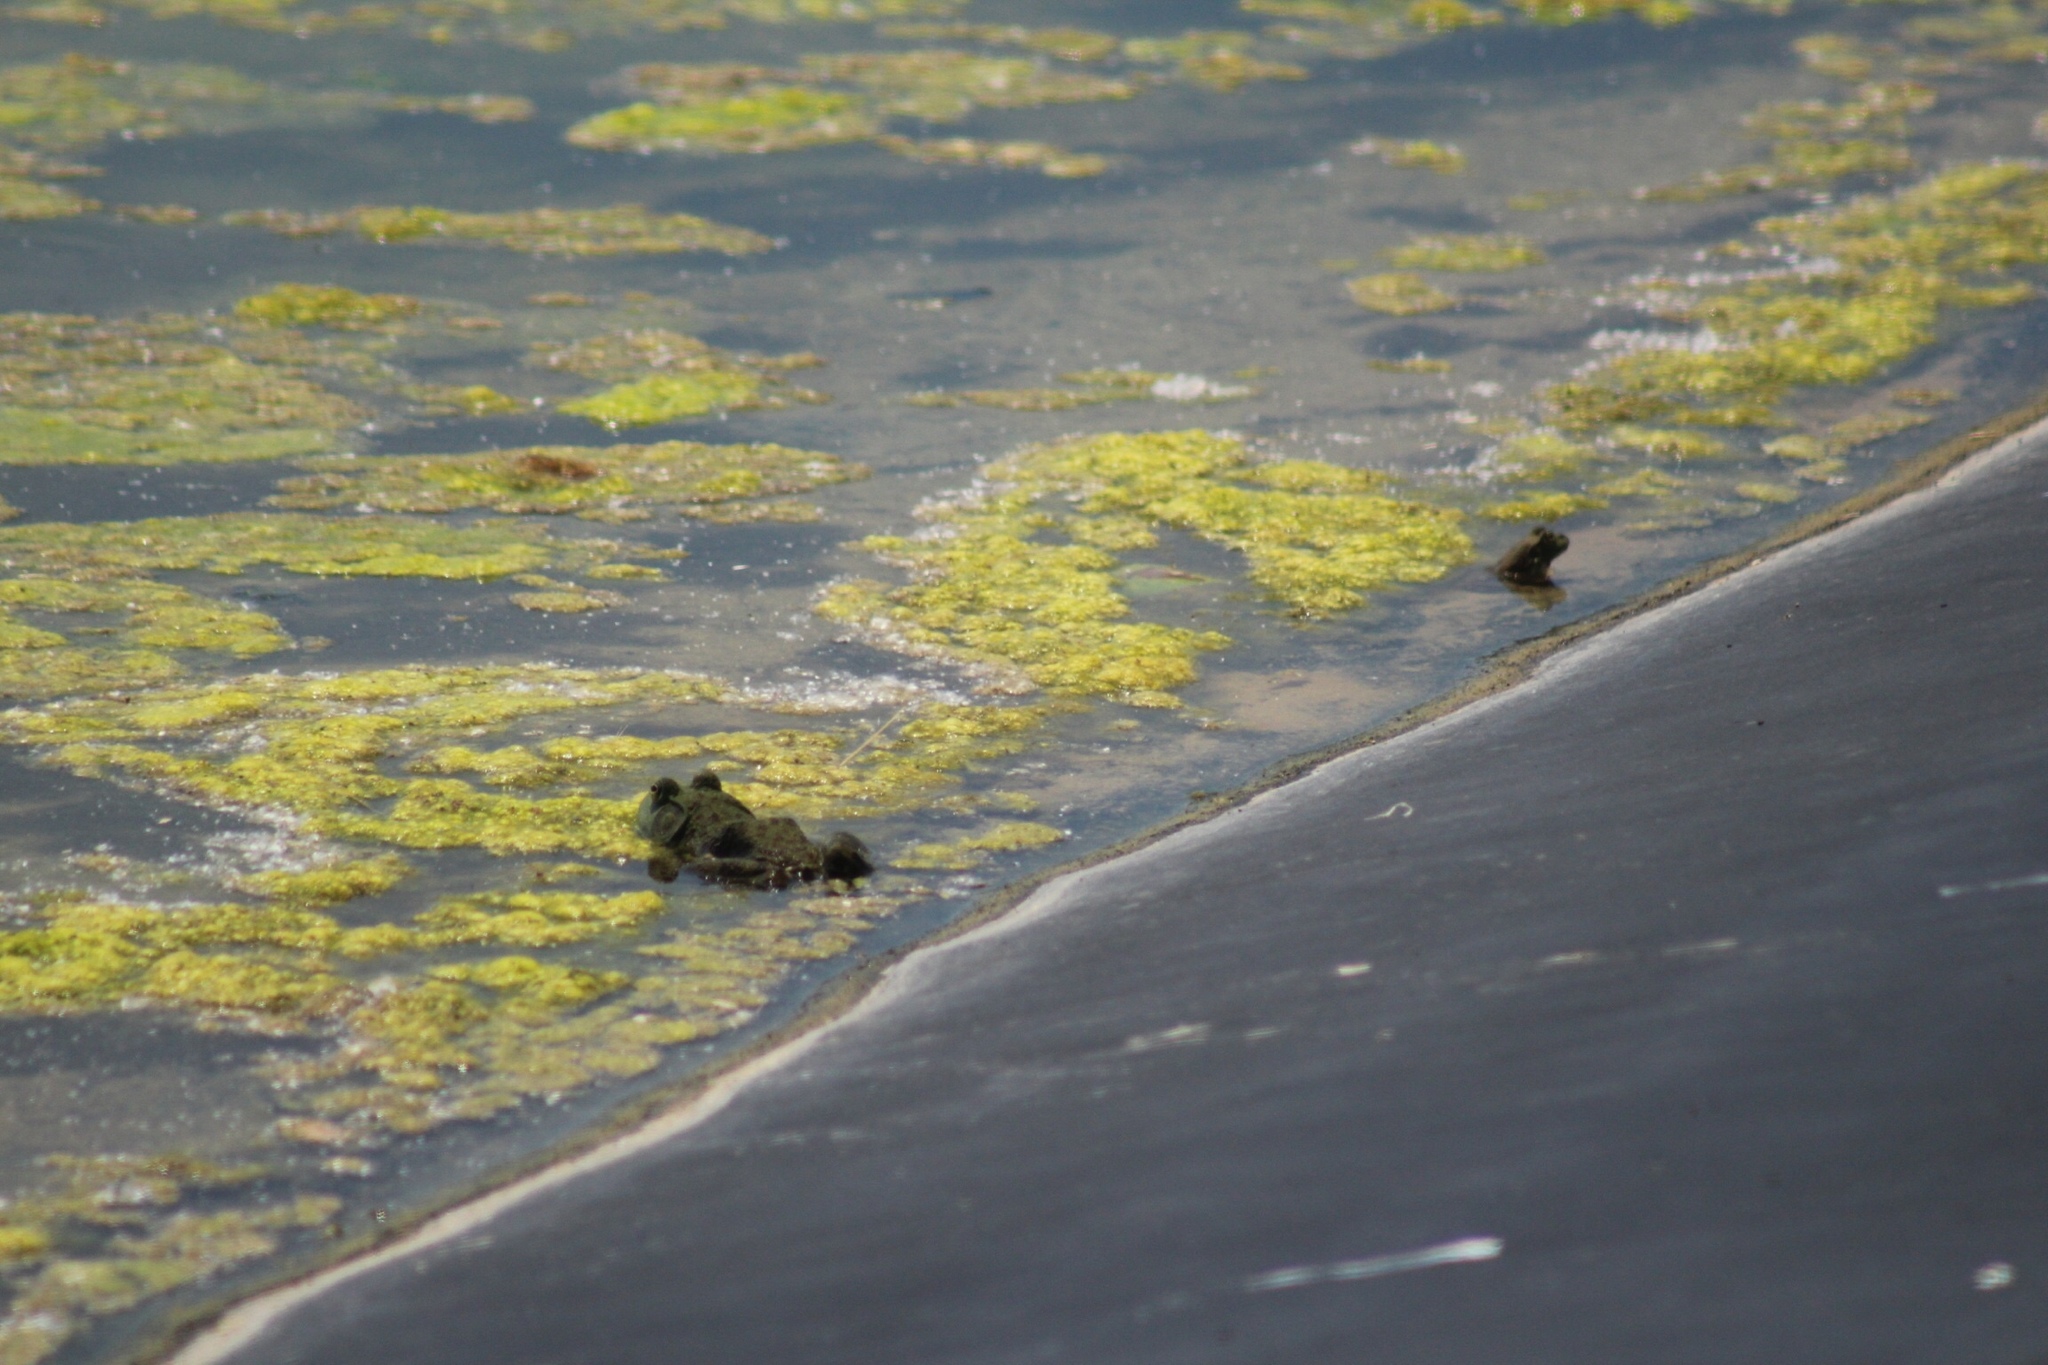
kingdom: Animalia
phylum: Chordata
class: Amphibia
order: Anura
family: Ranidae
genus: Lithobates
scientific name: Lithobates catesbeianus
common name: American bullfrog
